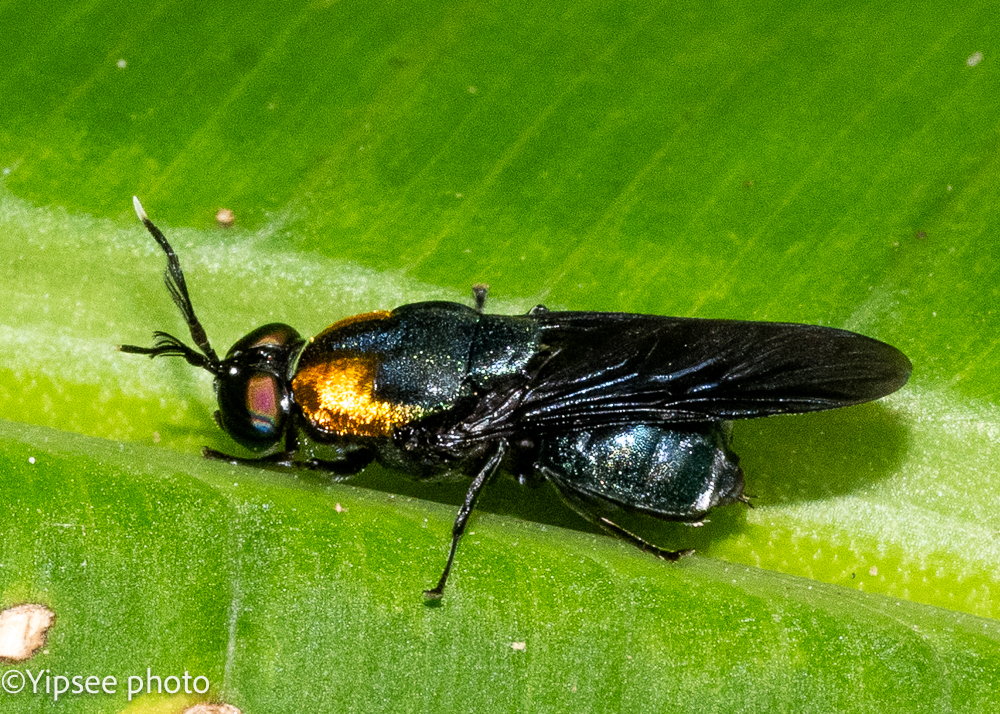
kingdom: Animalia
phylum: Arthropoda
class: Insecta
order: Diptera
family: Stratiomyidae
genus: Ptilocera
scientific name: Ptilocera quadridentata
